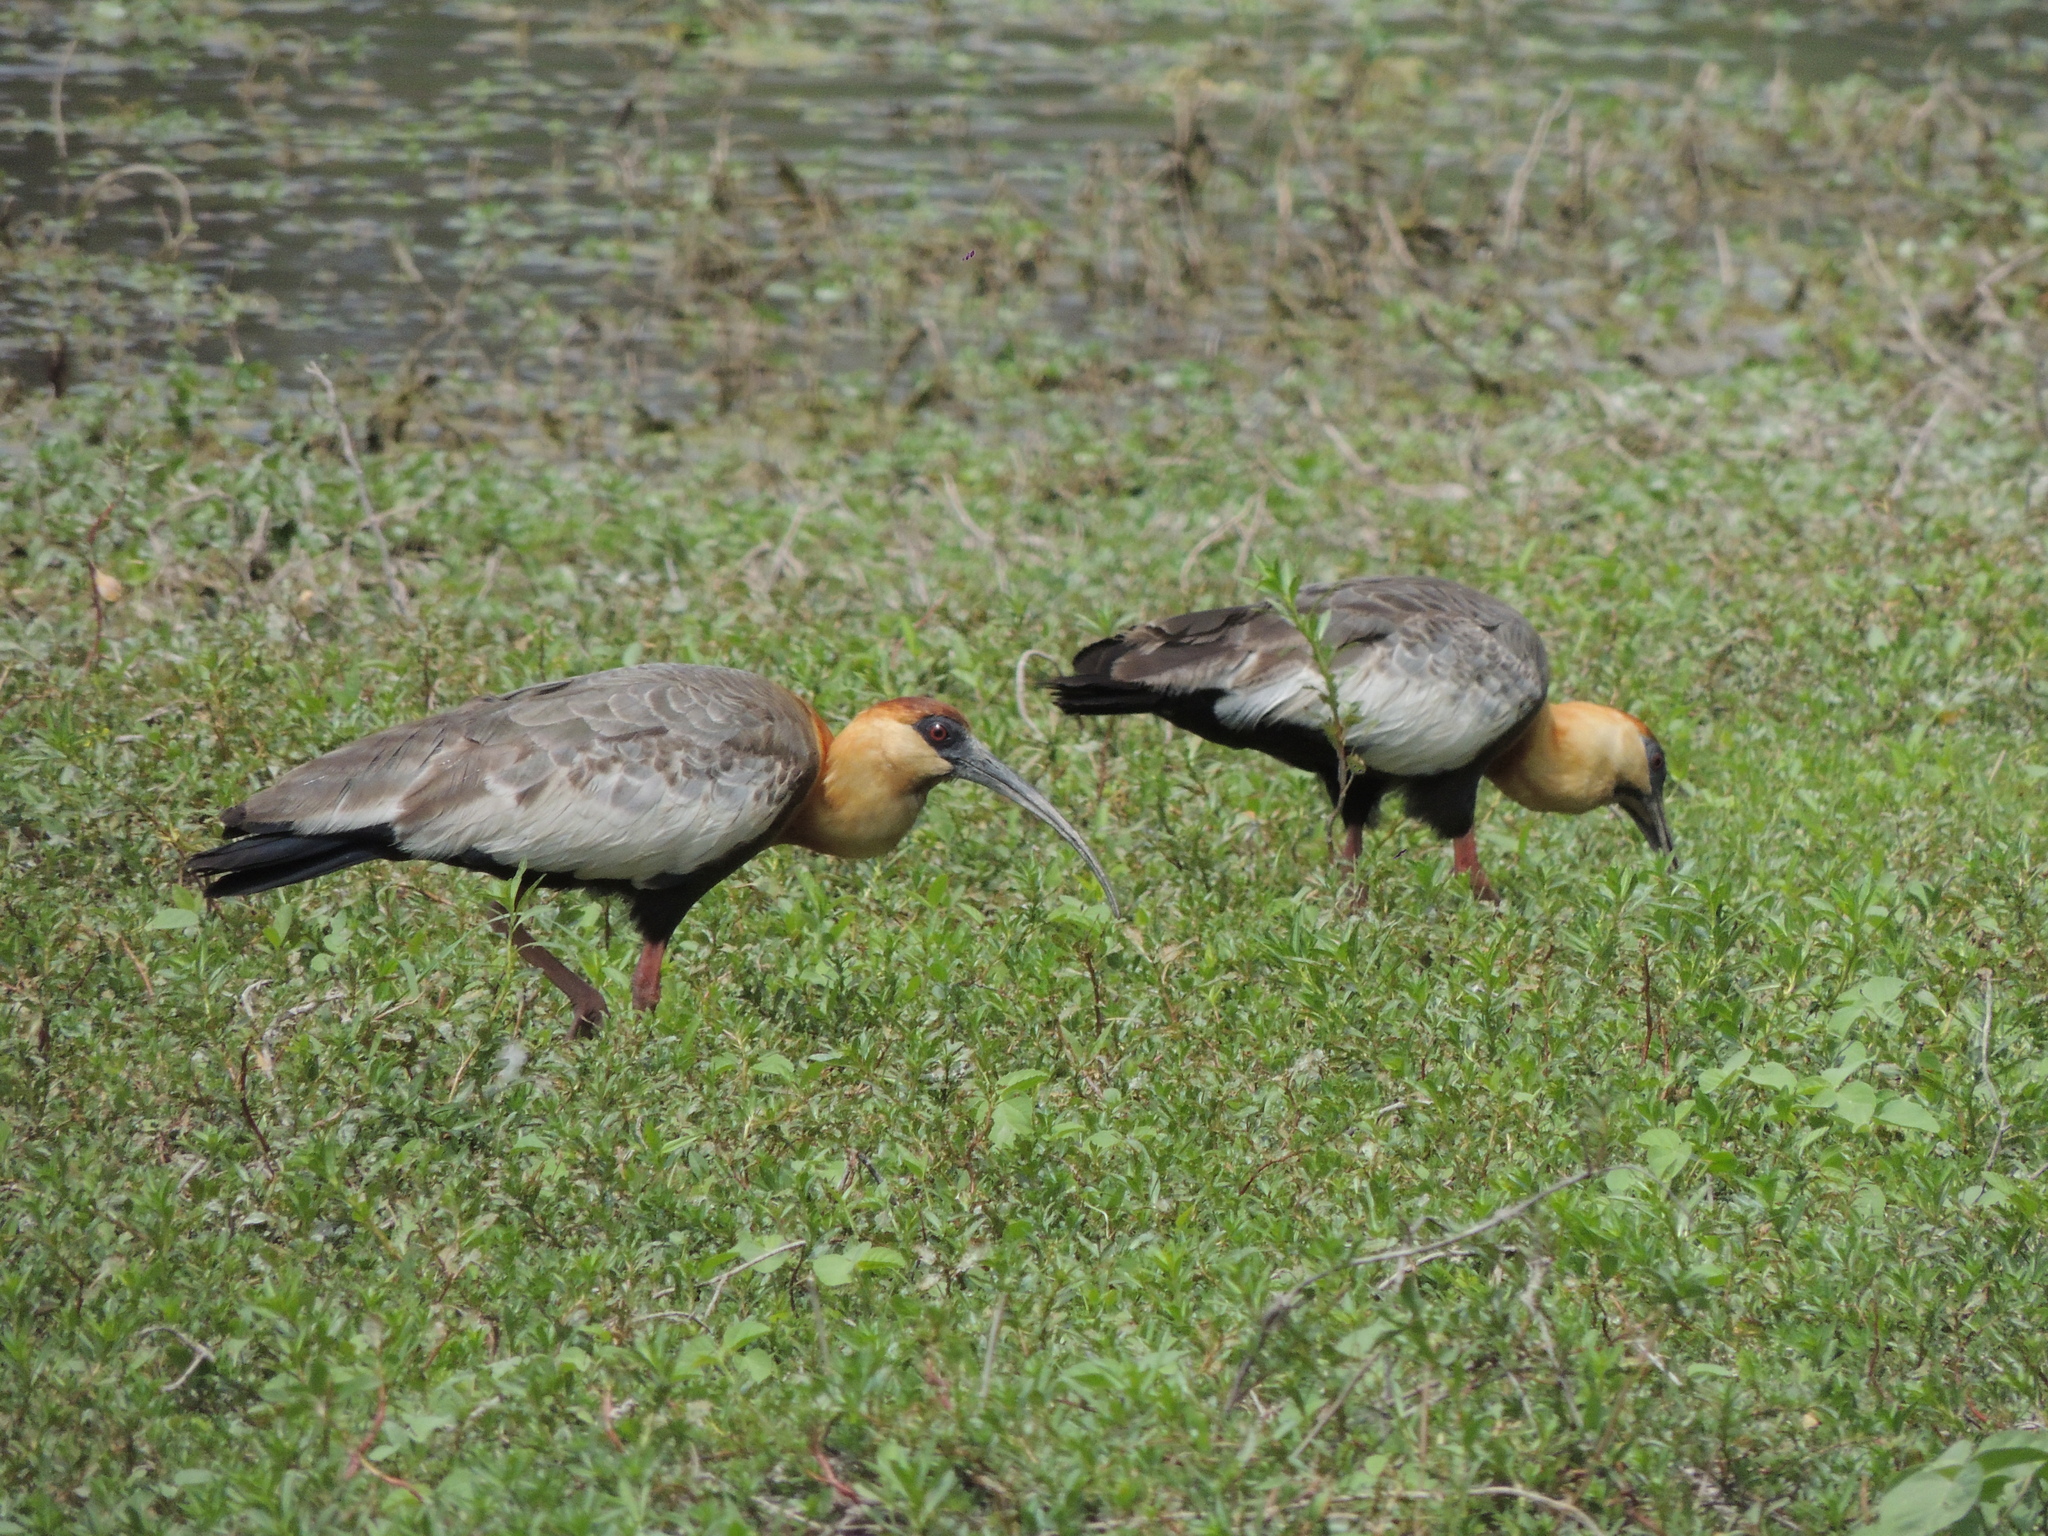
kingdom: Animalia
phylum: Chordata
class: Aves
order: Pelecaniformes
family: Threskiornithidae
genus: Theristicus
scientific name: Theristicus caudatus
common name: Buff-necked ibis
